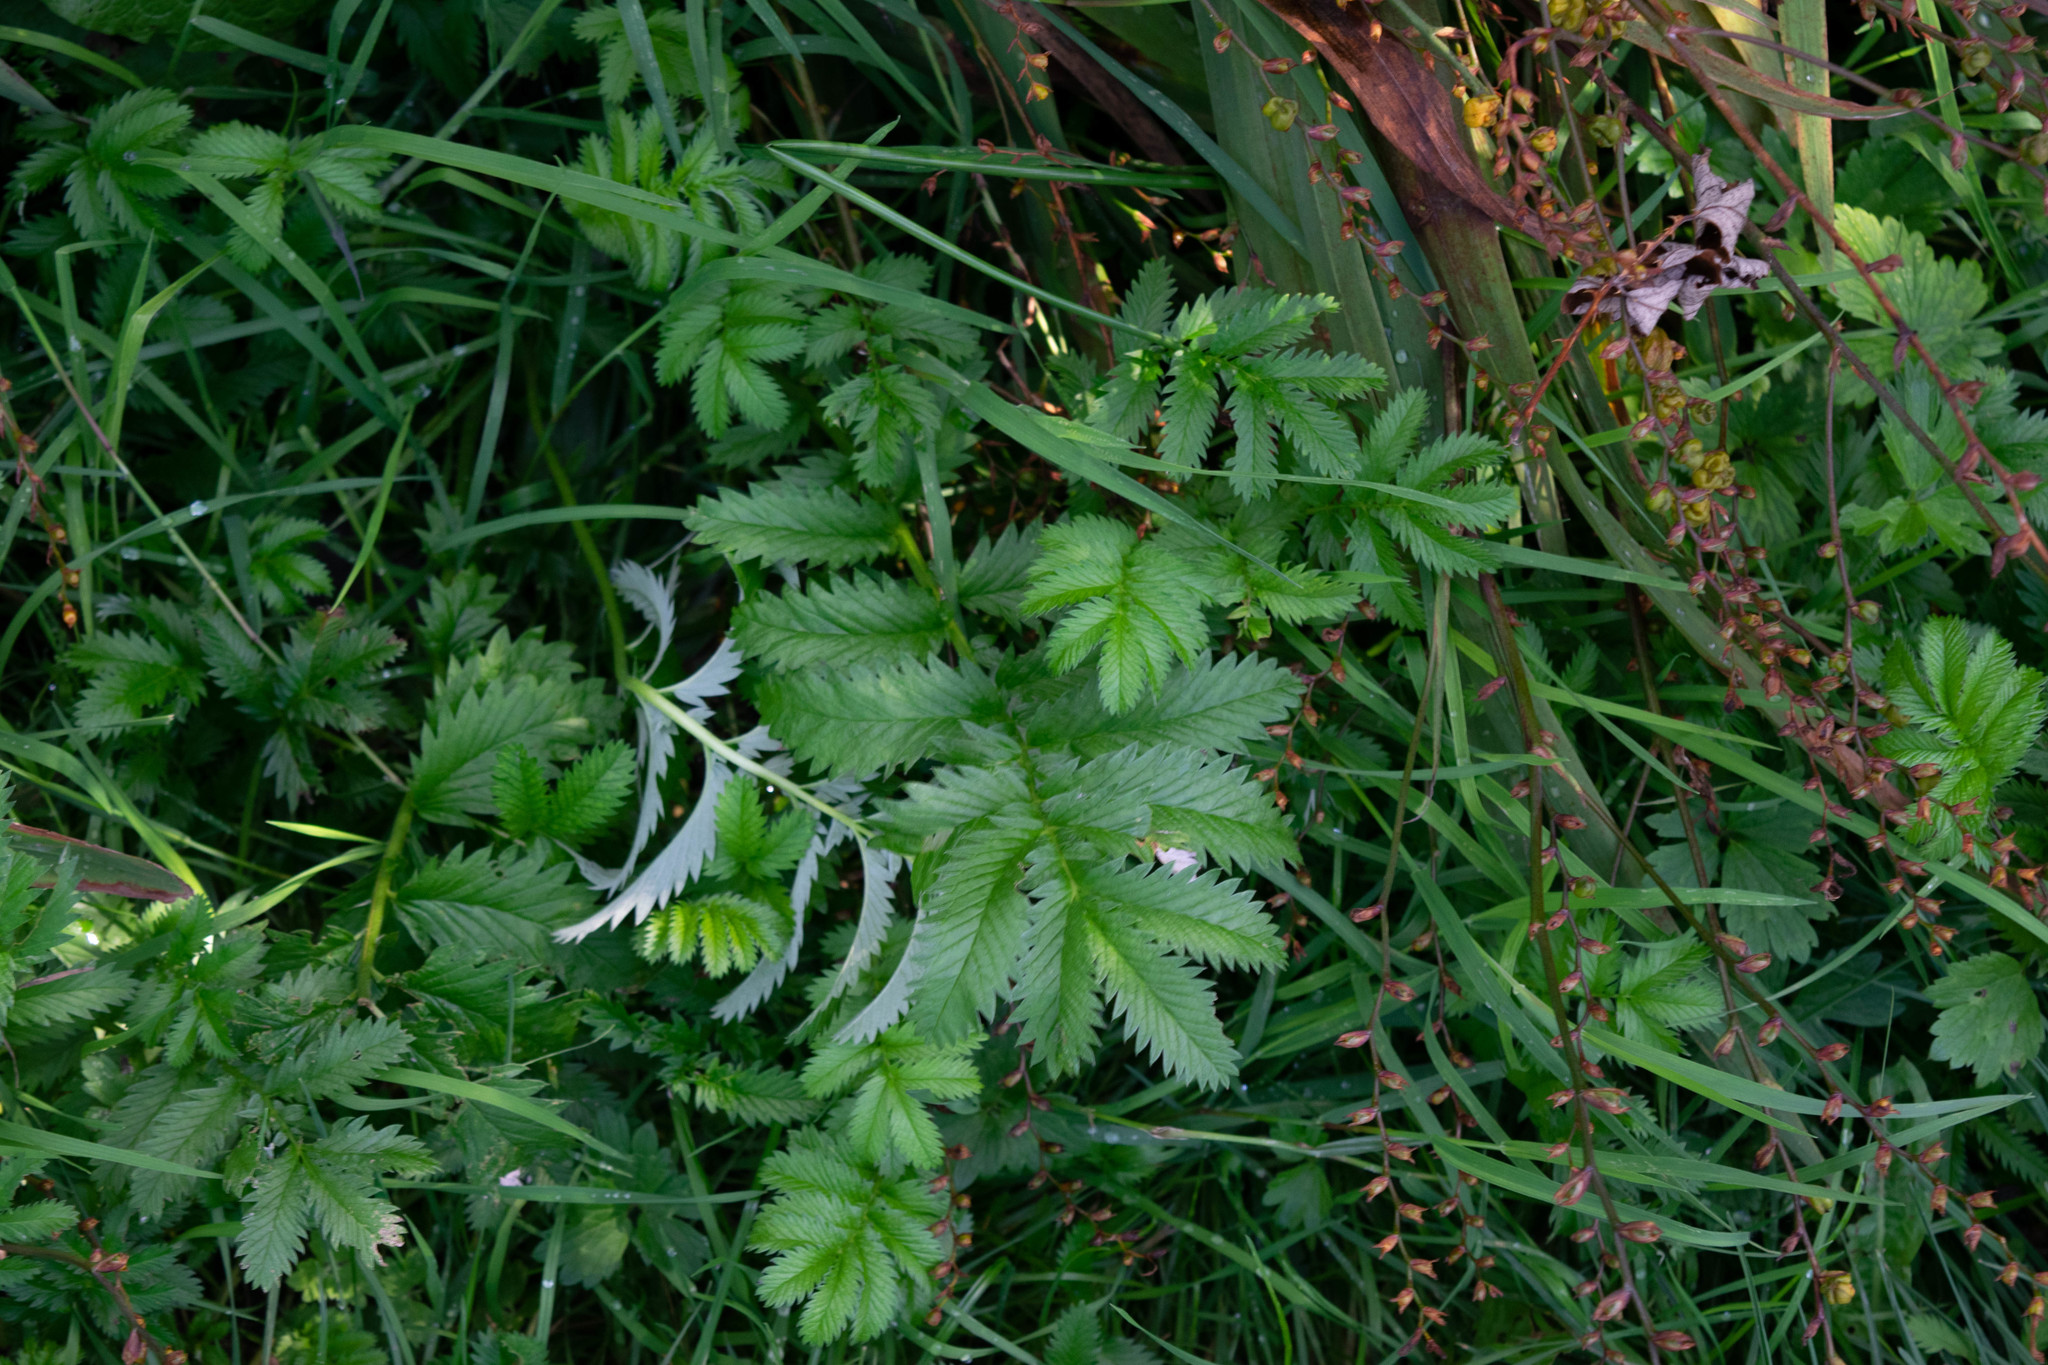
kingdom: Plantae
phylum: Tracheophyta
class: Magnoliopsida
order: Rosales
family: Rosaceae
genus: Argentina
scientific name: Argentina anserina
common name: Common silverweed
